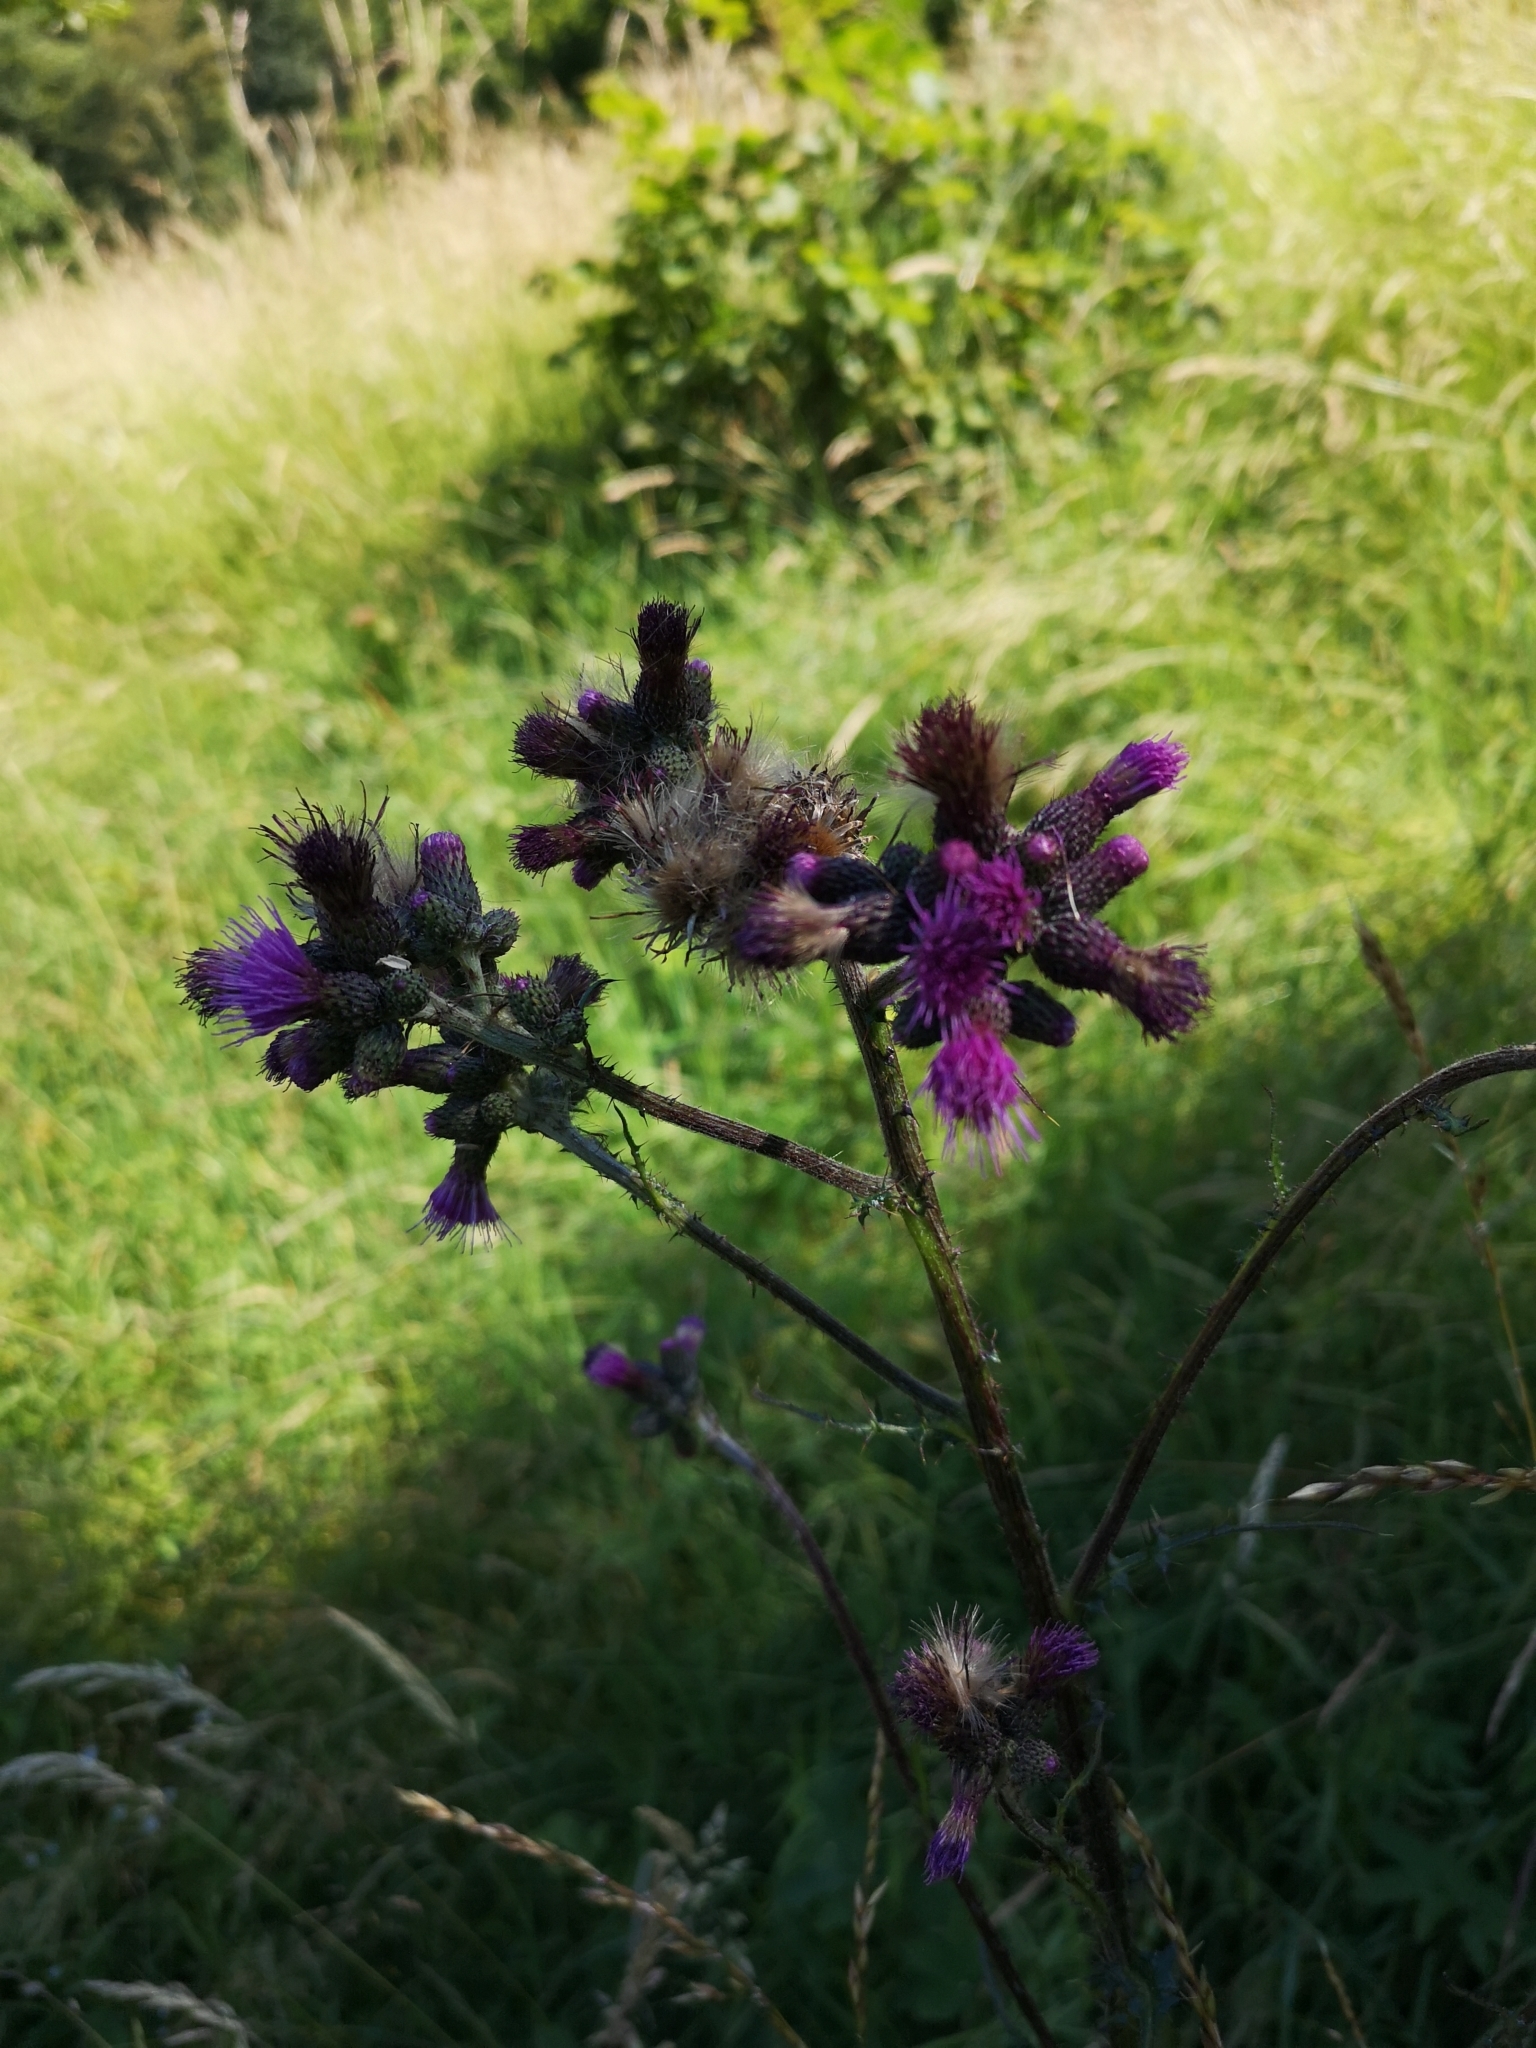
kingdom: Plantae
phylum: Tracheophyta
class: Magnoliopsida
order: Asterales
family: Asteraceae
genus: Cirsium
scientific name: Cirsium palustre
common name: Marsh thistle
